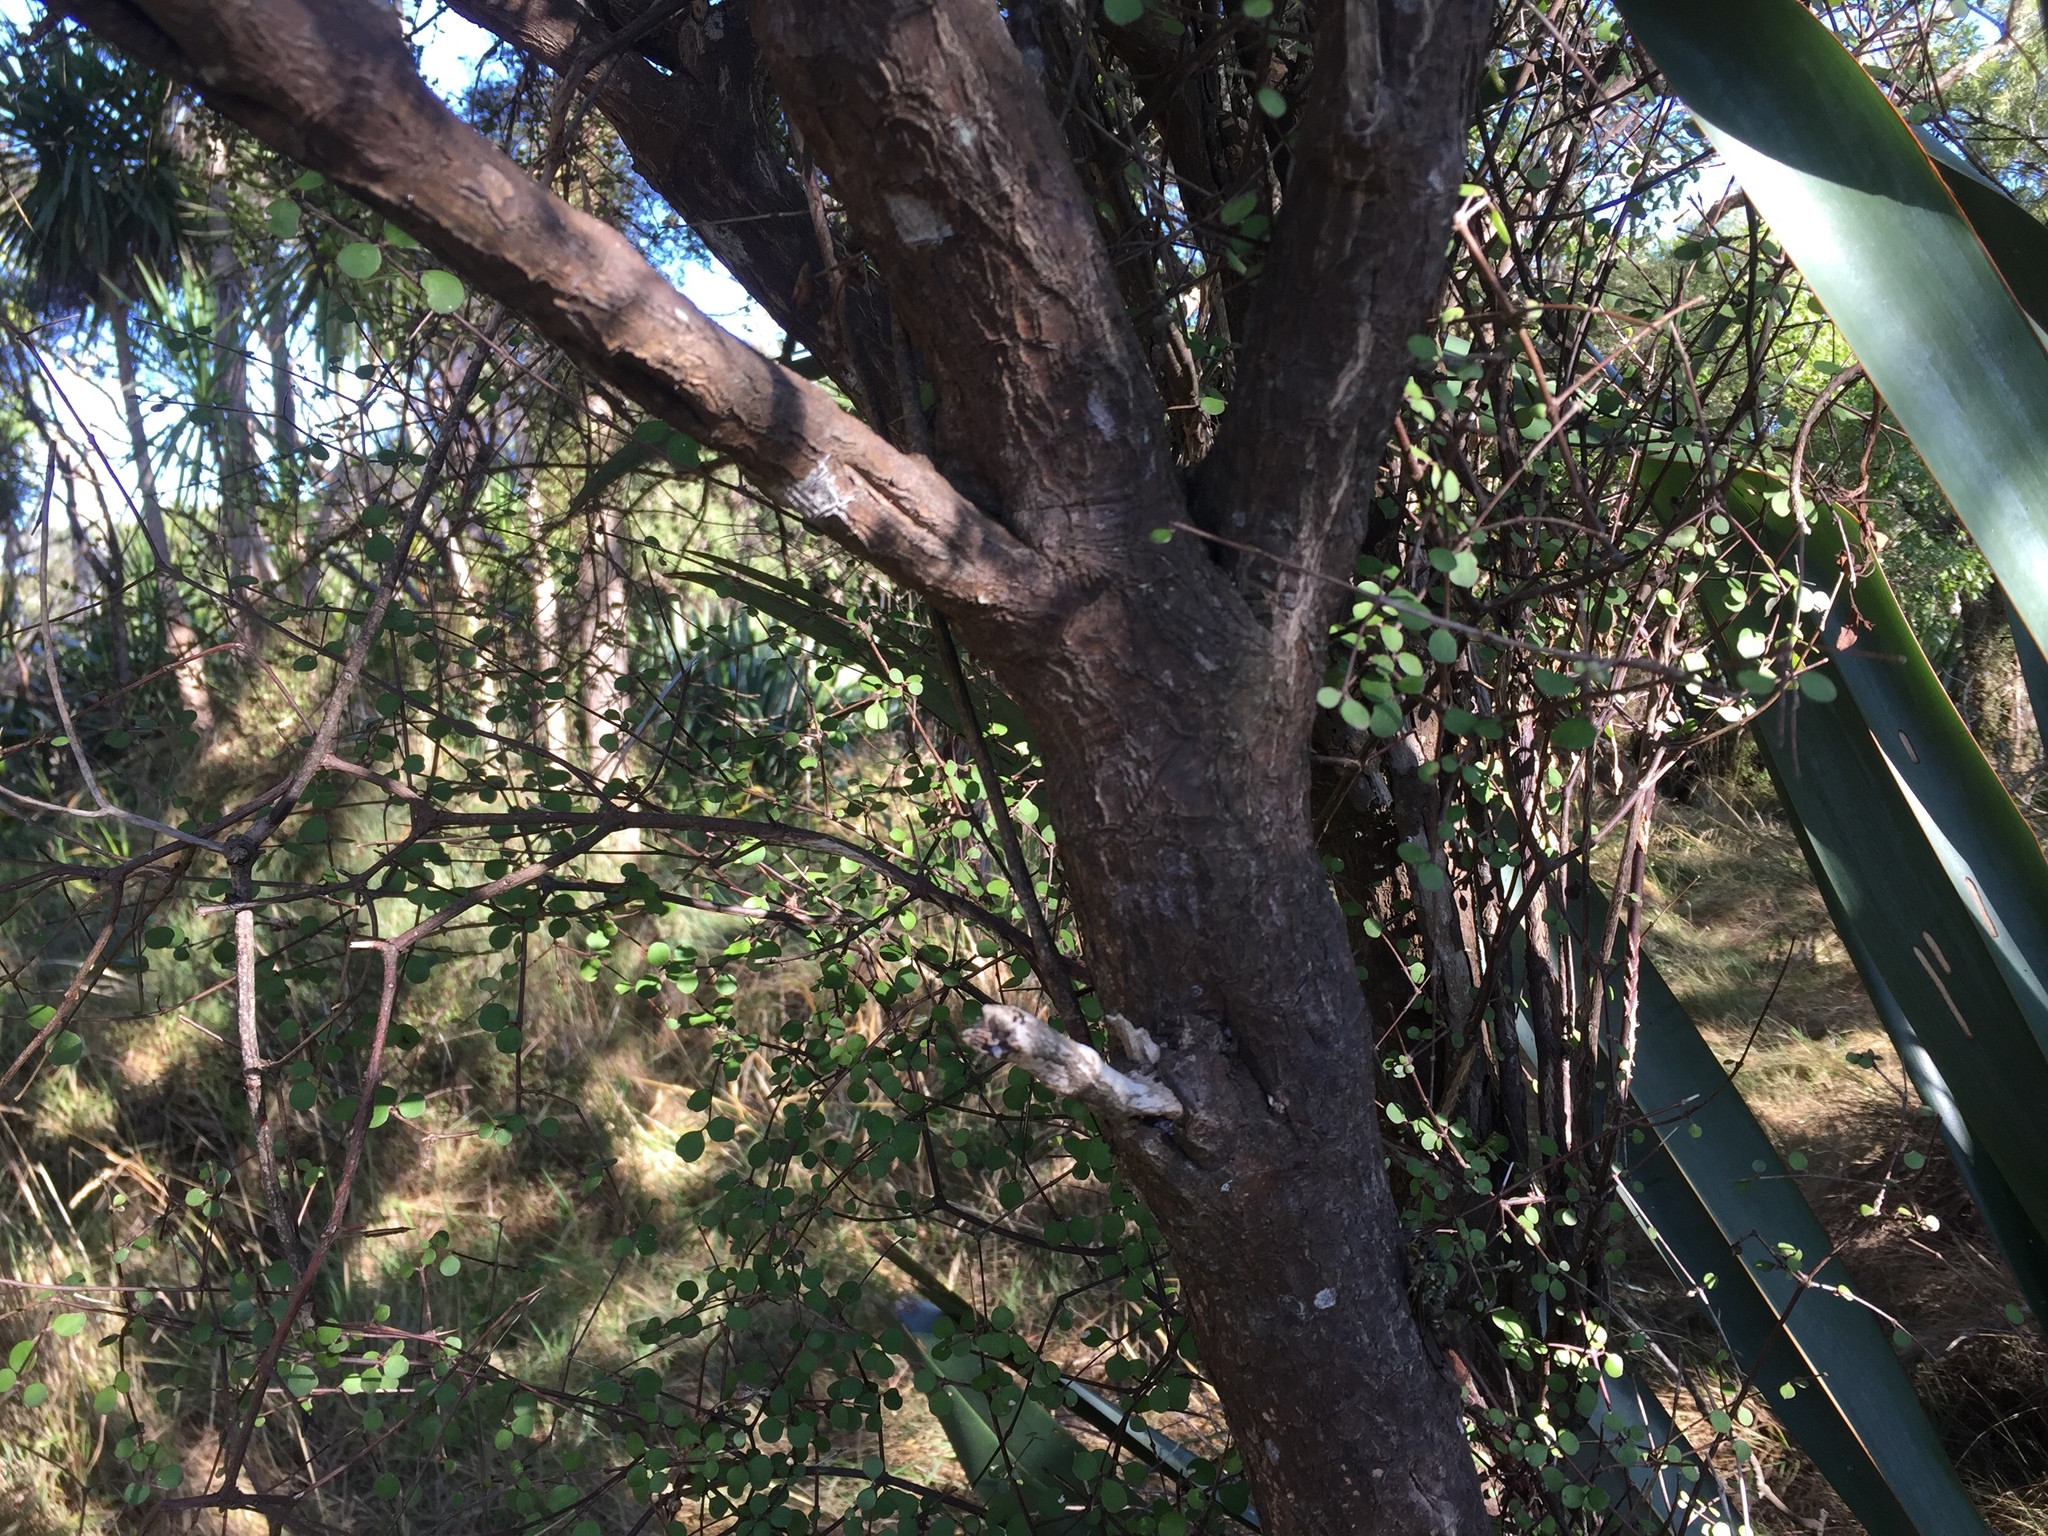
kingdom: Plantae
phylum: Tracheophyta
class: Magnoliopsida
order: Gentianales
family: Rubiaceae
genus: Coprosma
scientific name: Coprosma crassifolia
